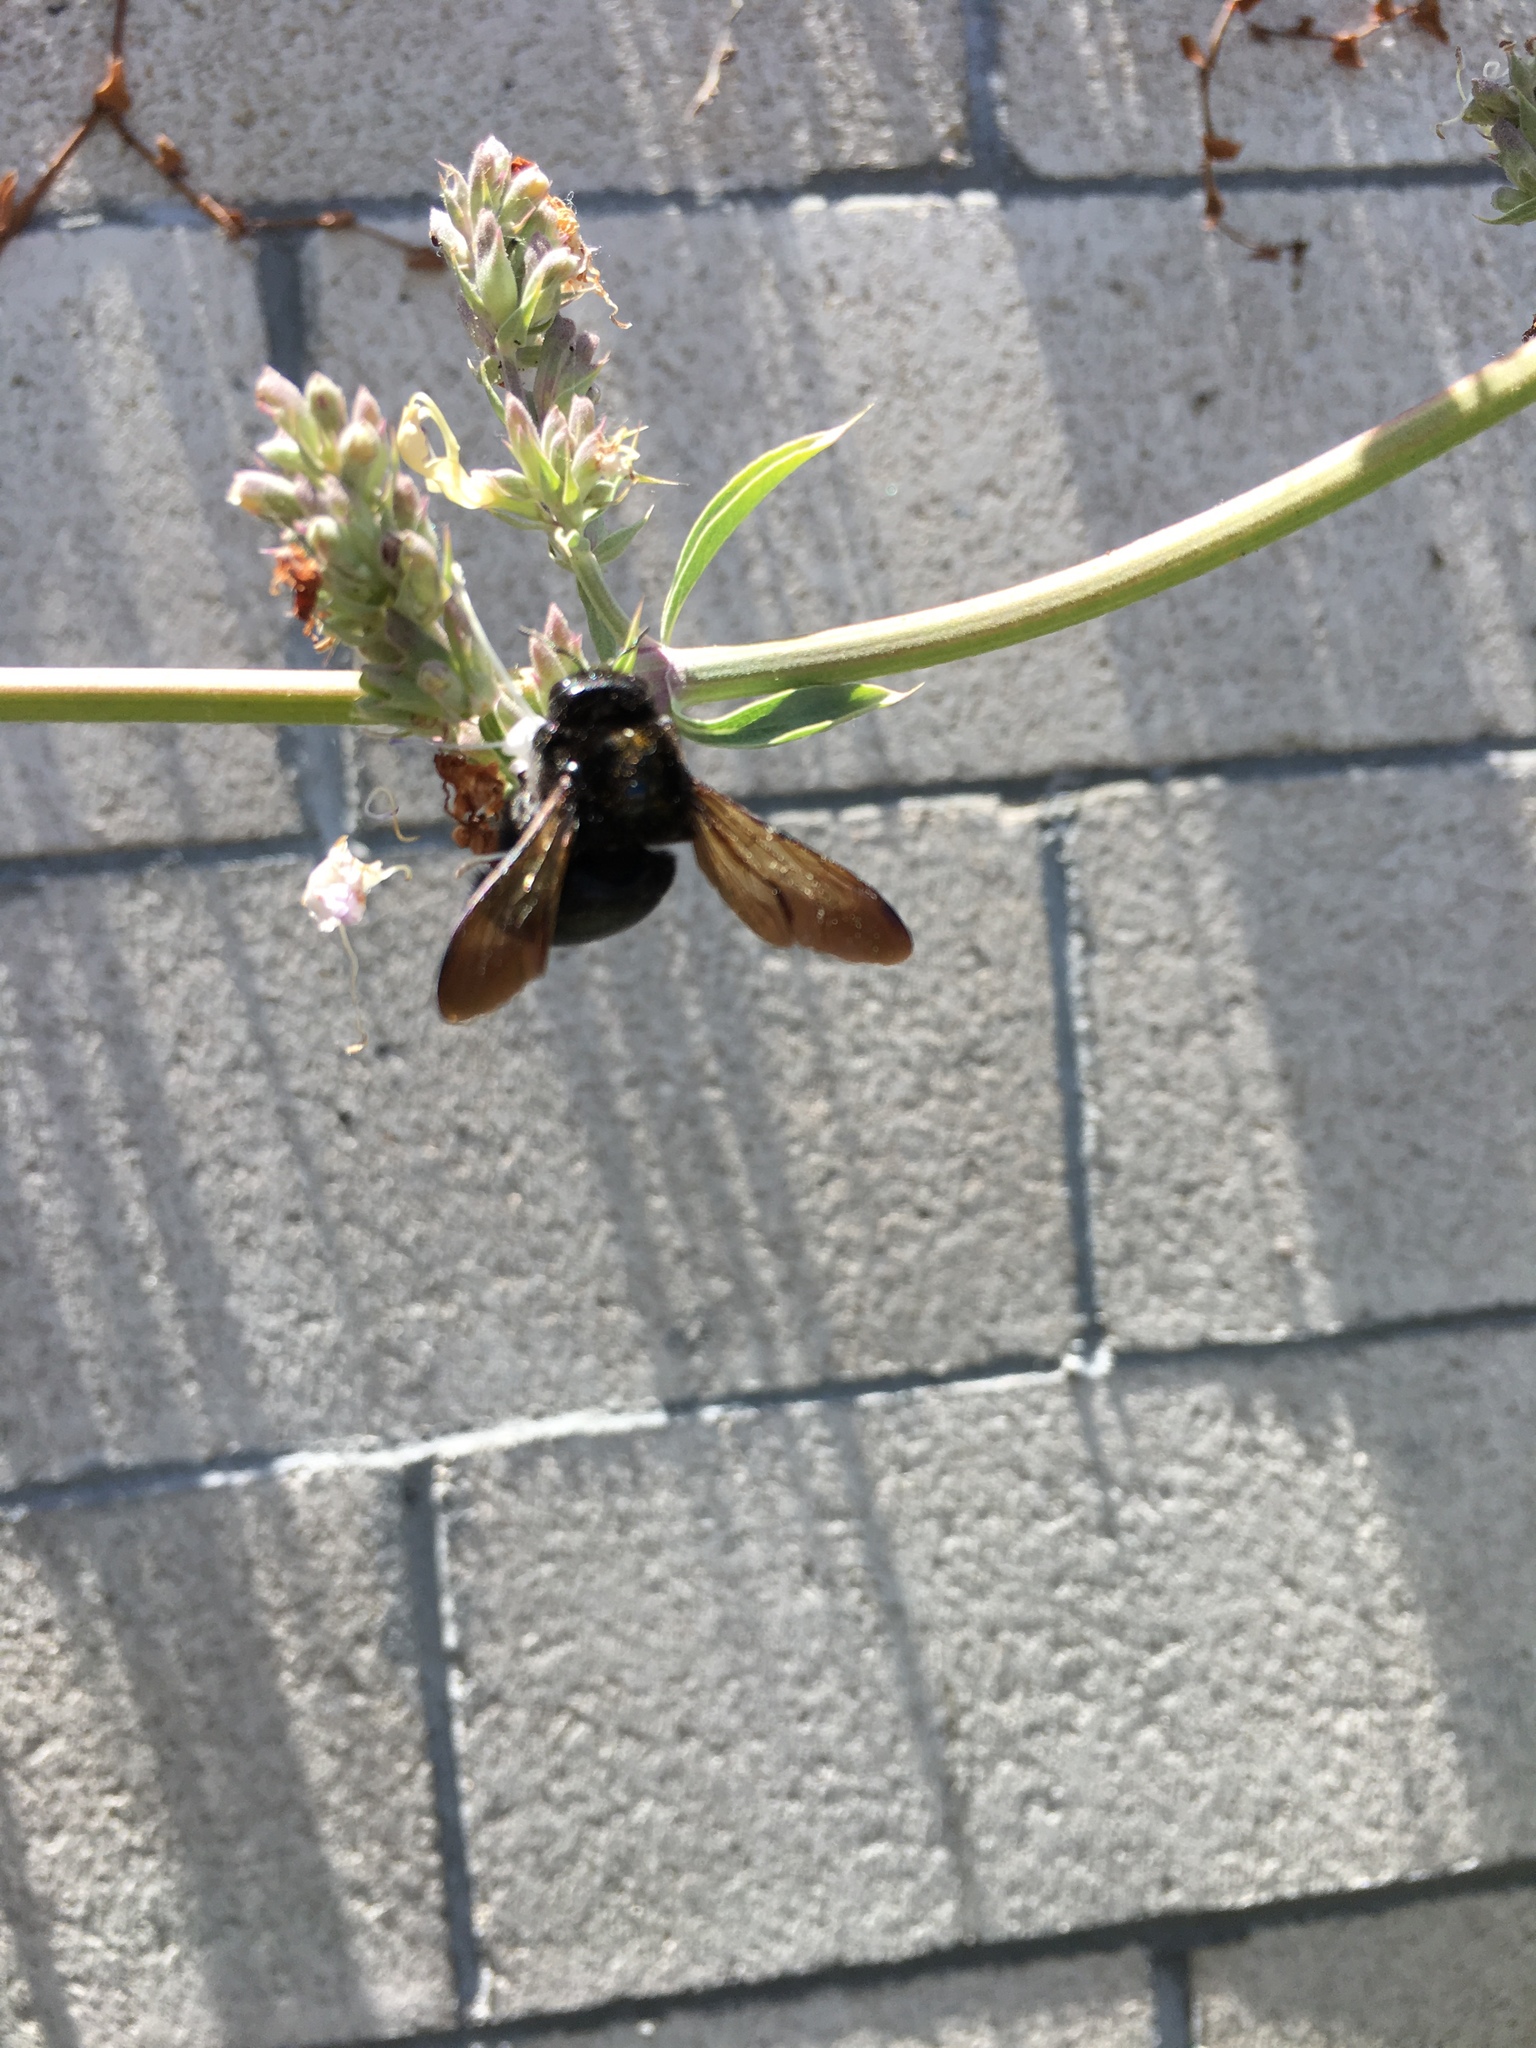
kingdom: Animalia
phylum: Arthropoda
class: Insecta
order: Hymenoptera
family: Apidae
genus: Xylocopa
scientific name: Xylocopa sonorina
